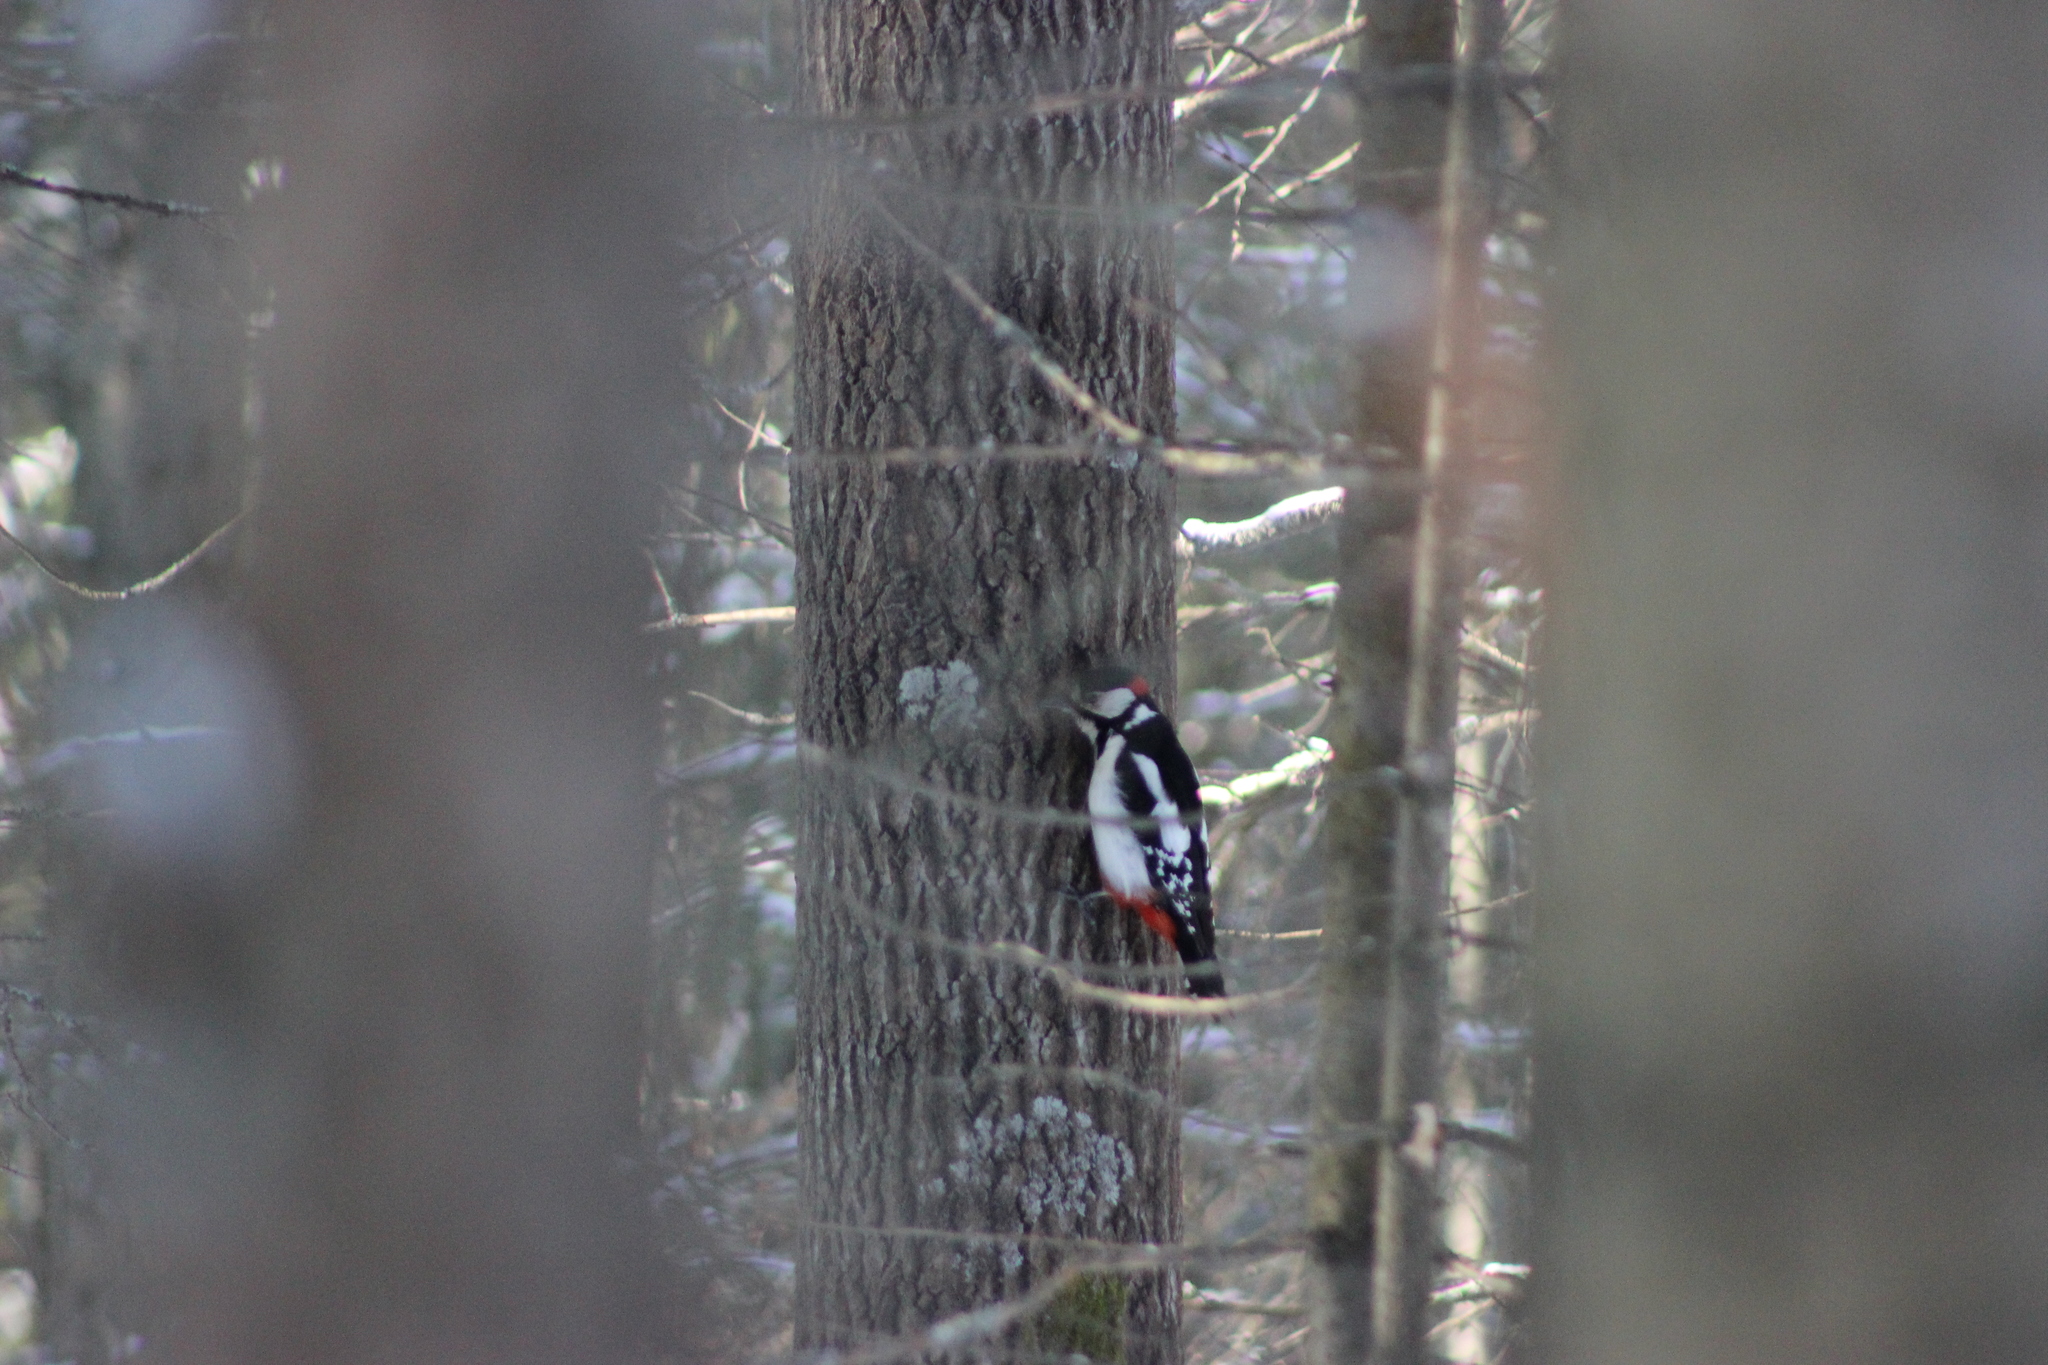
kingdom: Animalia
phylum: Chordata
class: Aves
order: Piciformes
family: Picidae
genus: Dendrocopos
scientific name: Dendrocopos major
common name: Great spotted woodpecker
